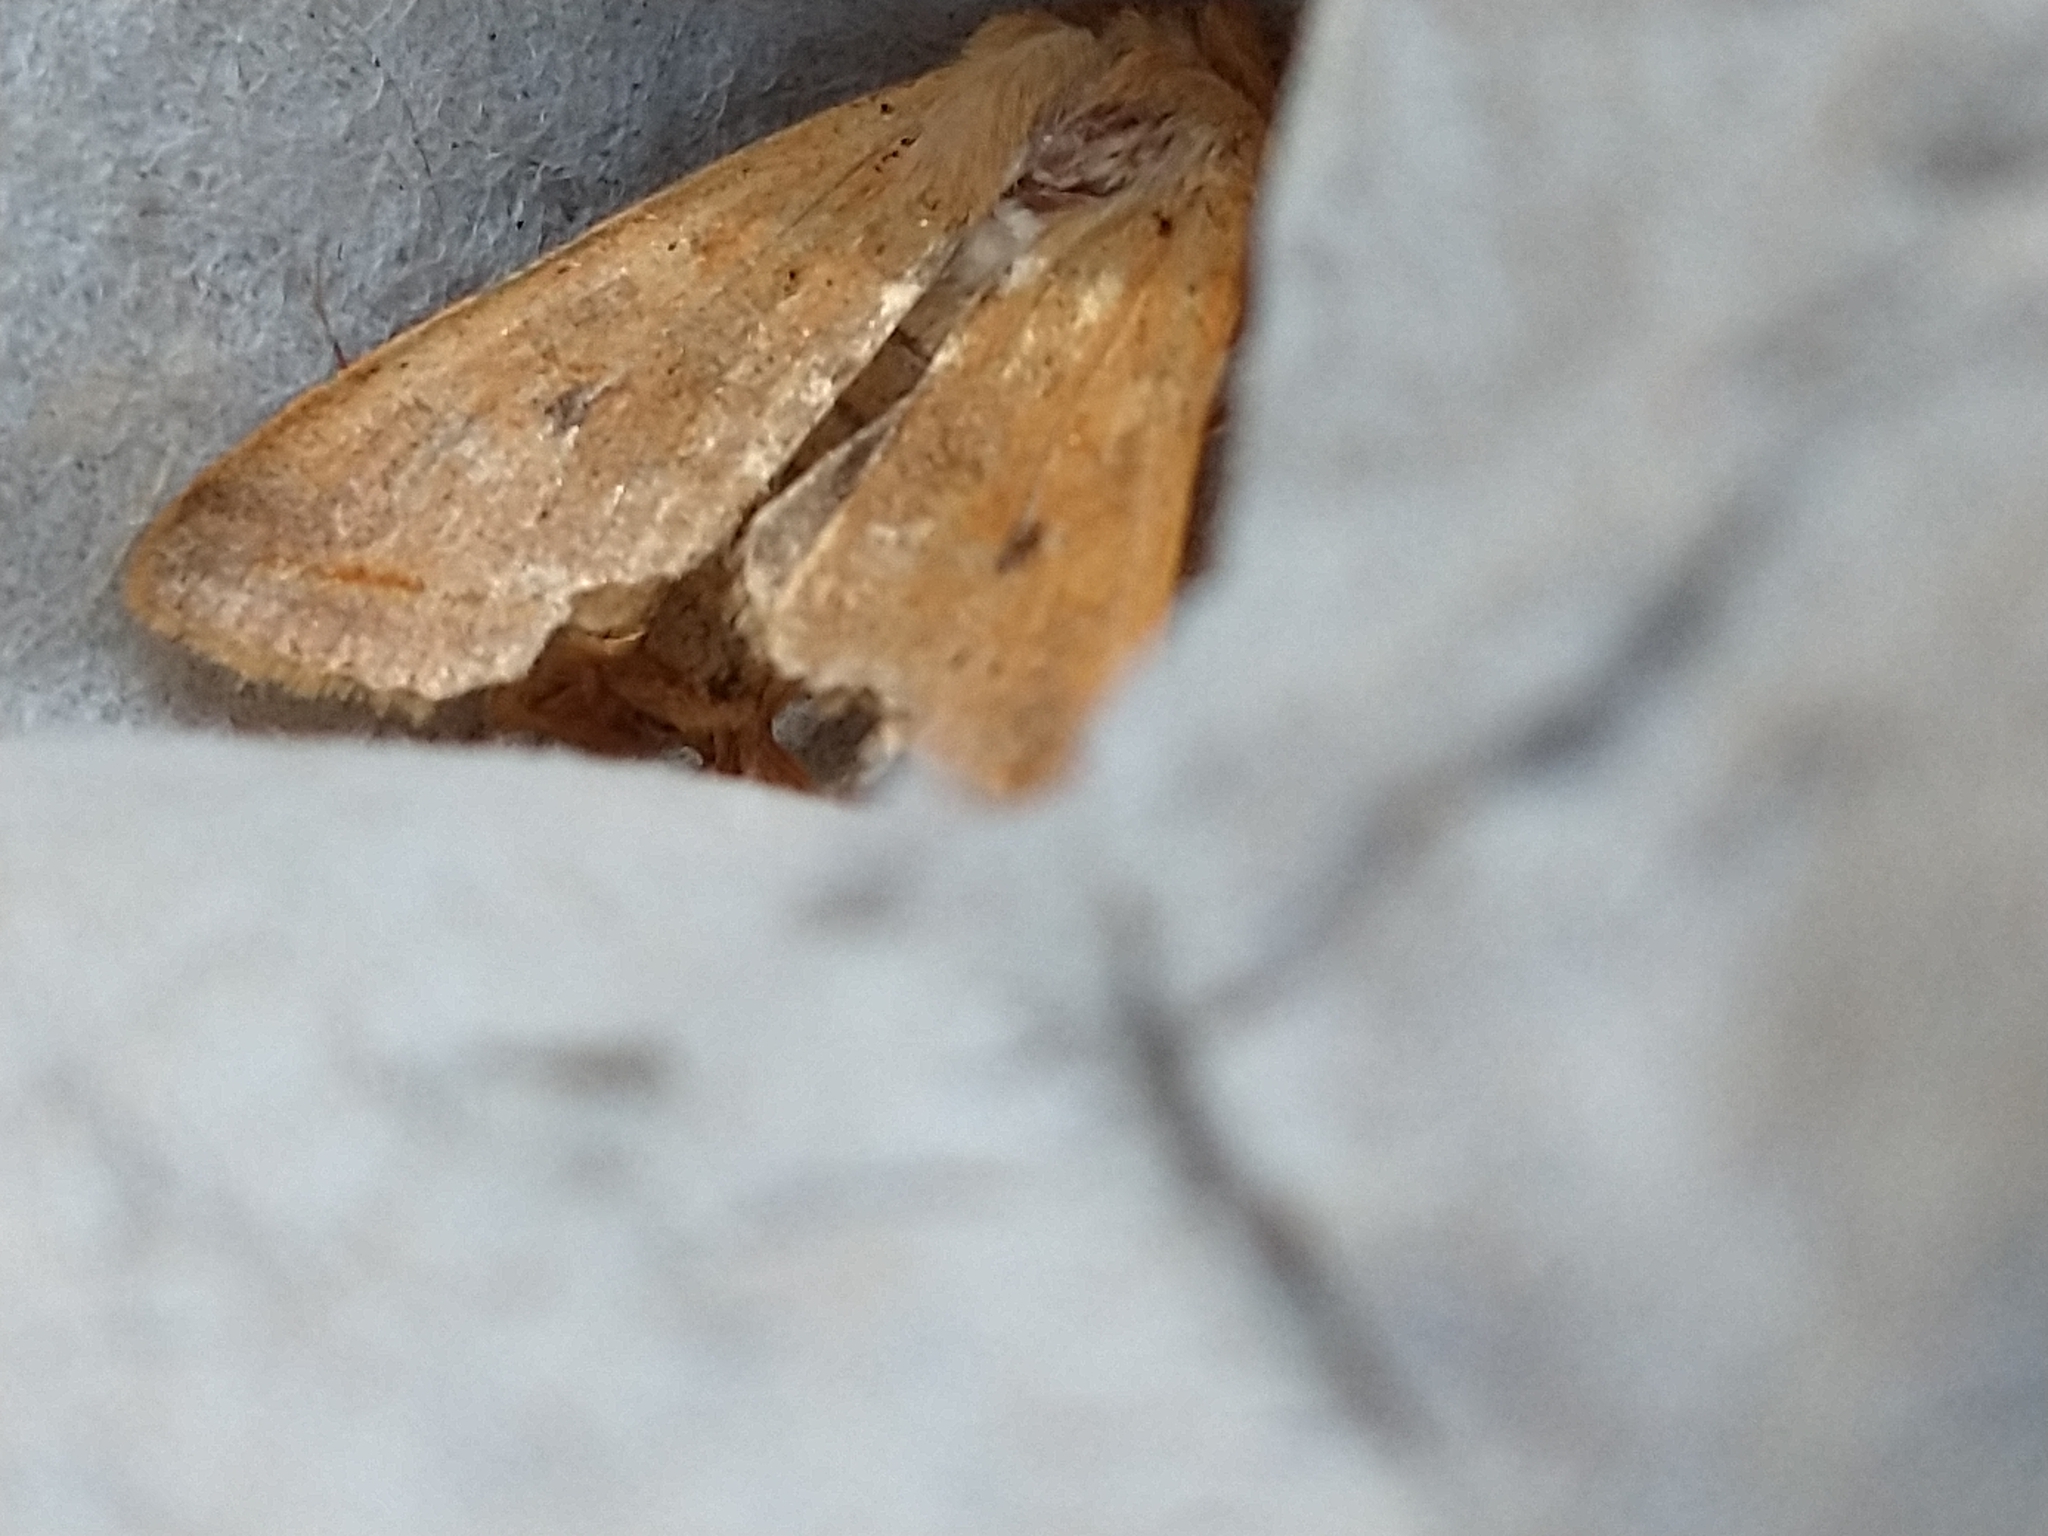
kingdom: Animalia
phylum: Arthropoda
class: Insecta
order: Lepidoptera
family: Noctuidae
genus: Agrochola
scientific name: Agrochola macilenta
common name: Yellow-line quaker
